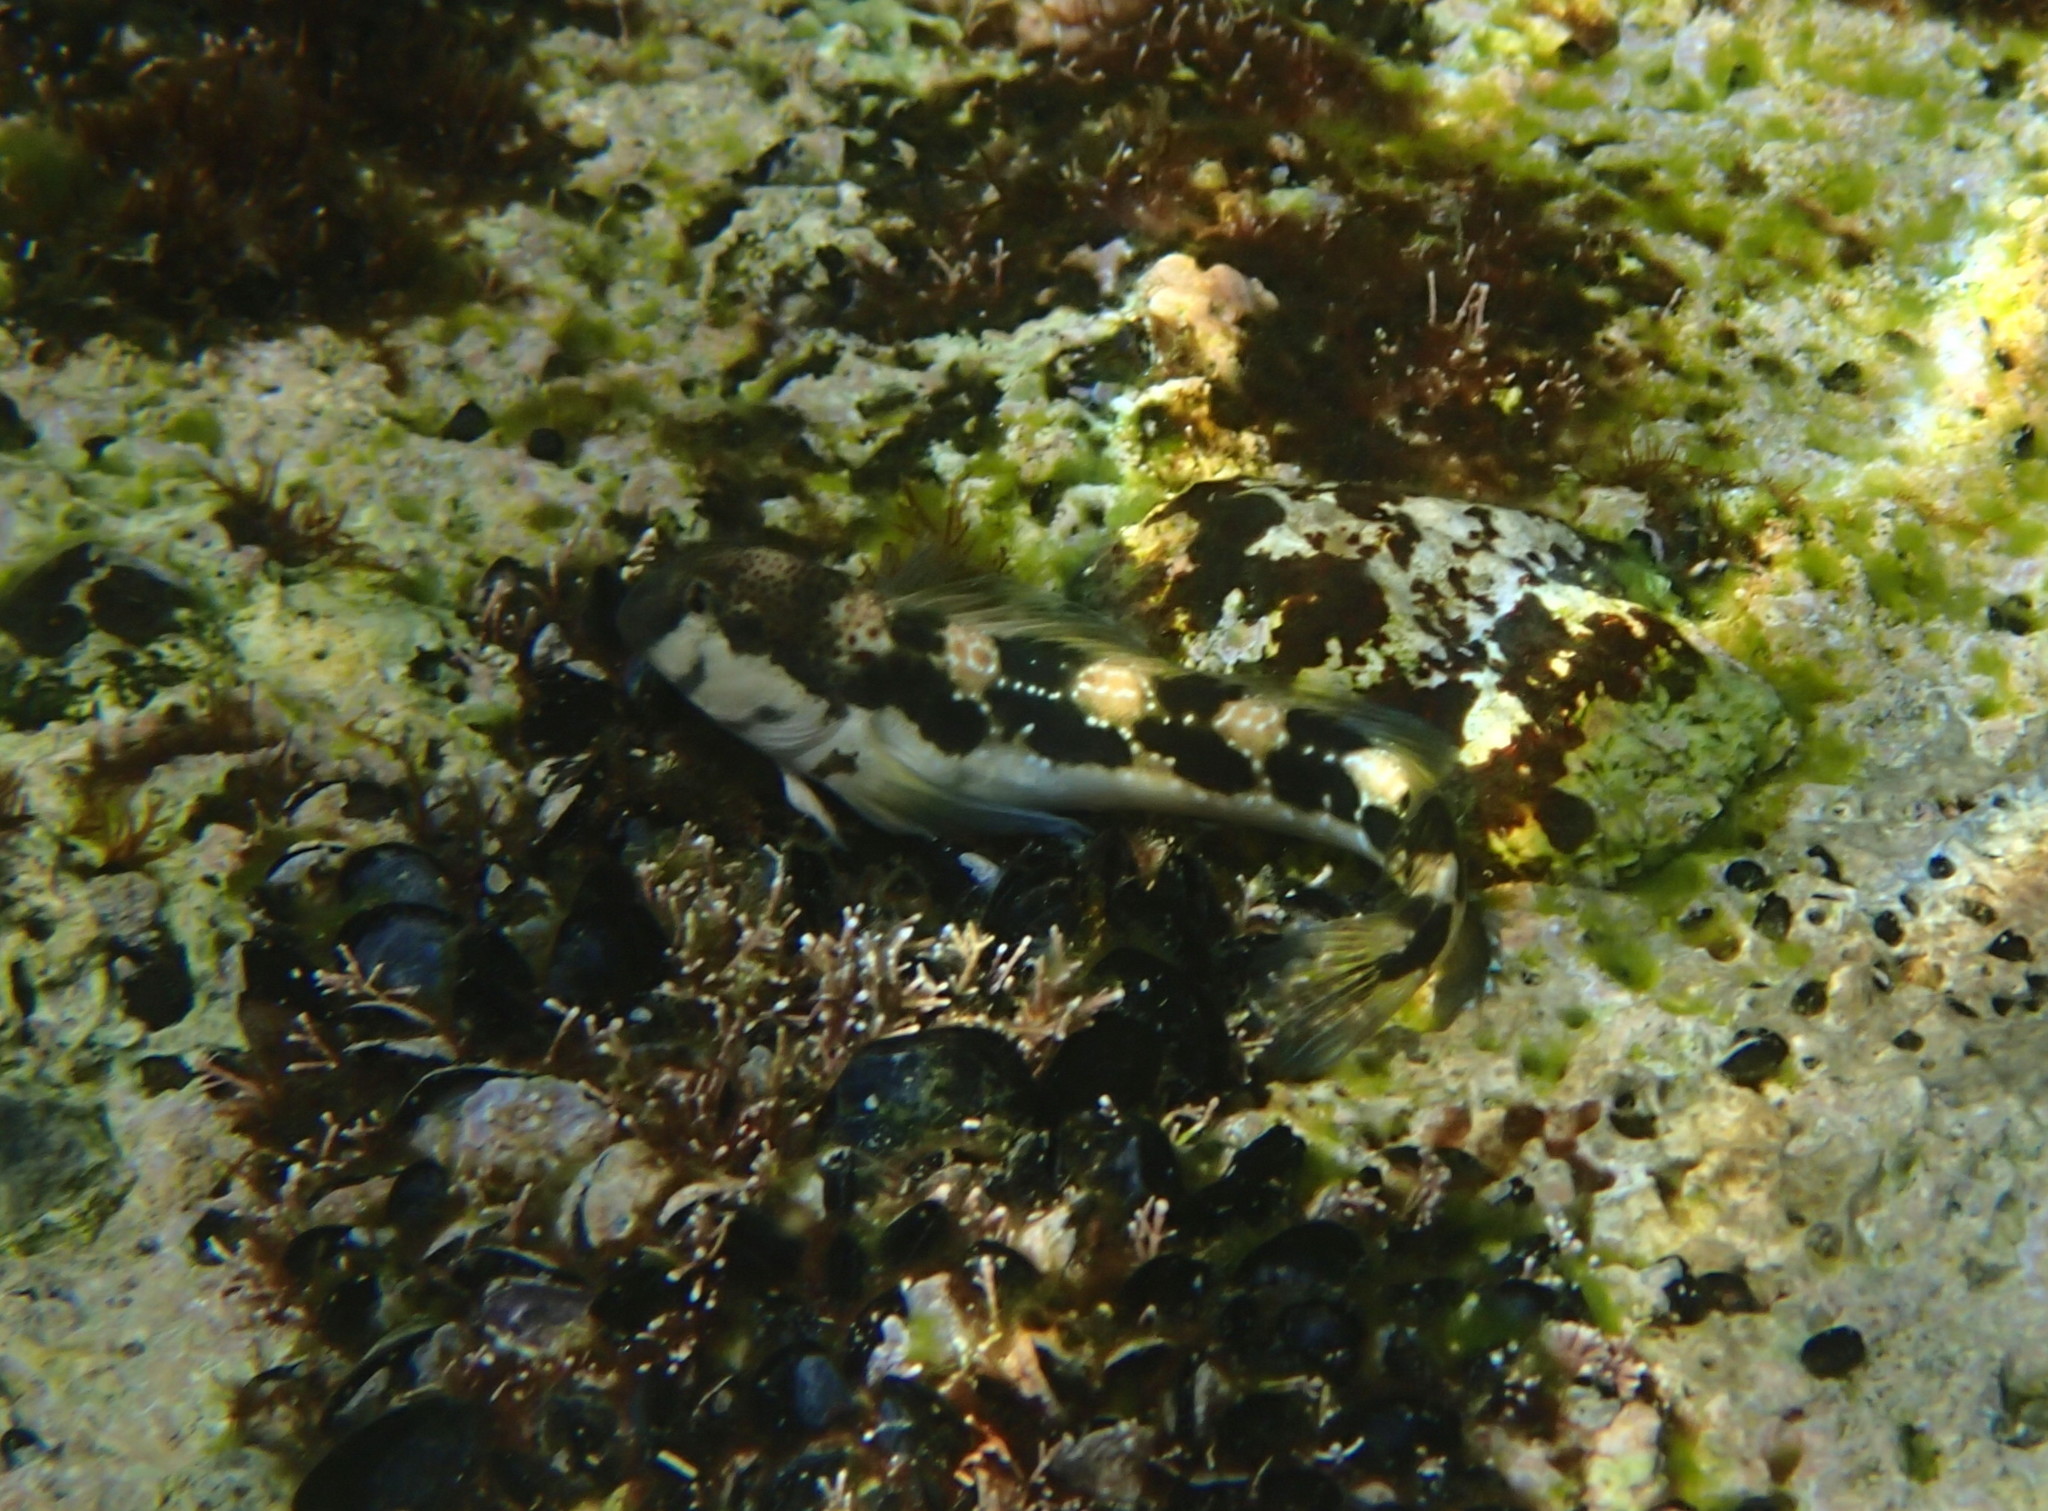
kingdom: Animalia
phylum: Chordata
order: Perciformes
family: Blenniidae
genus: Microlipophrys
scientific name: Microlipophrys adriaticus
